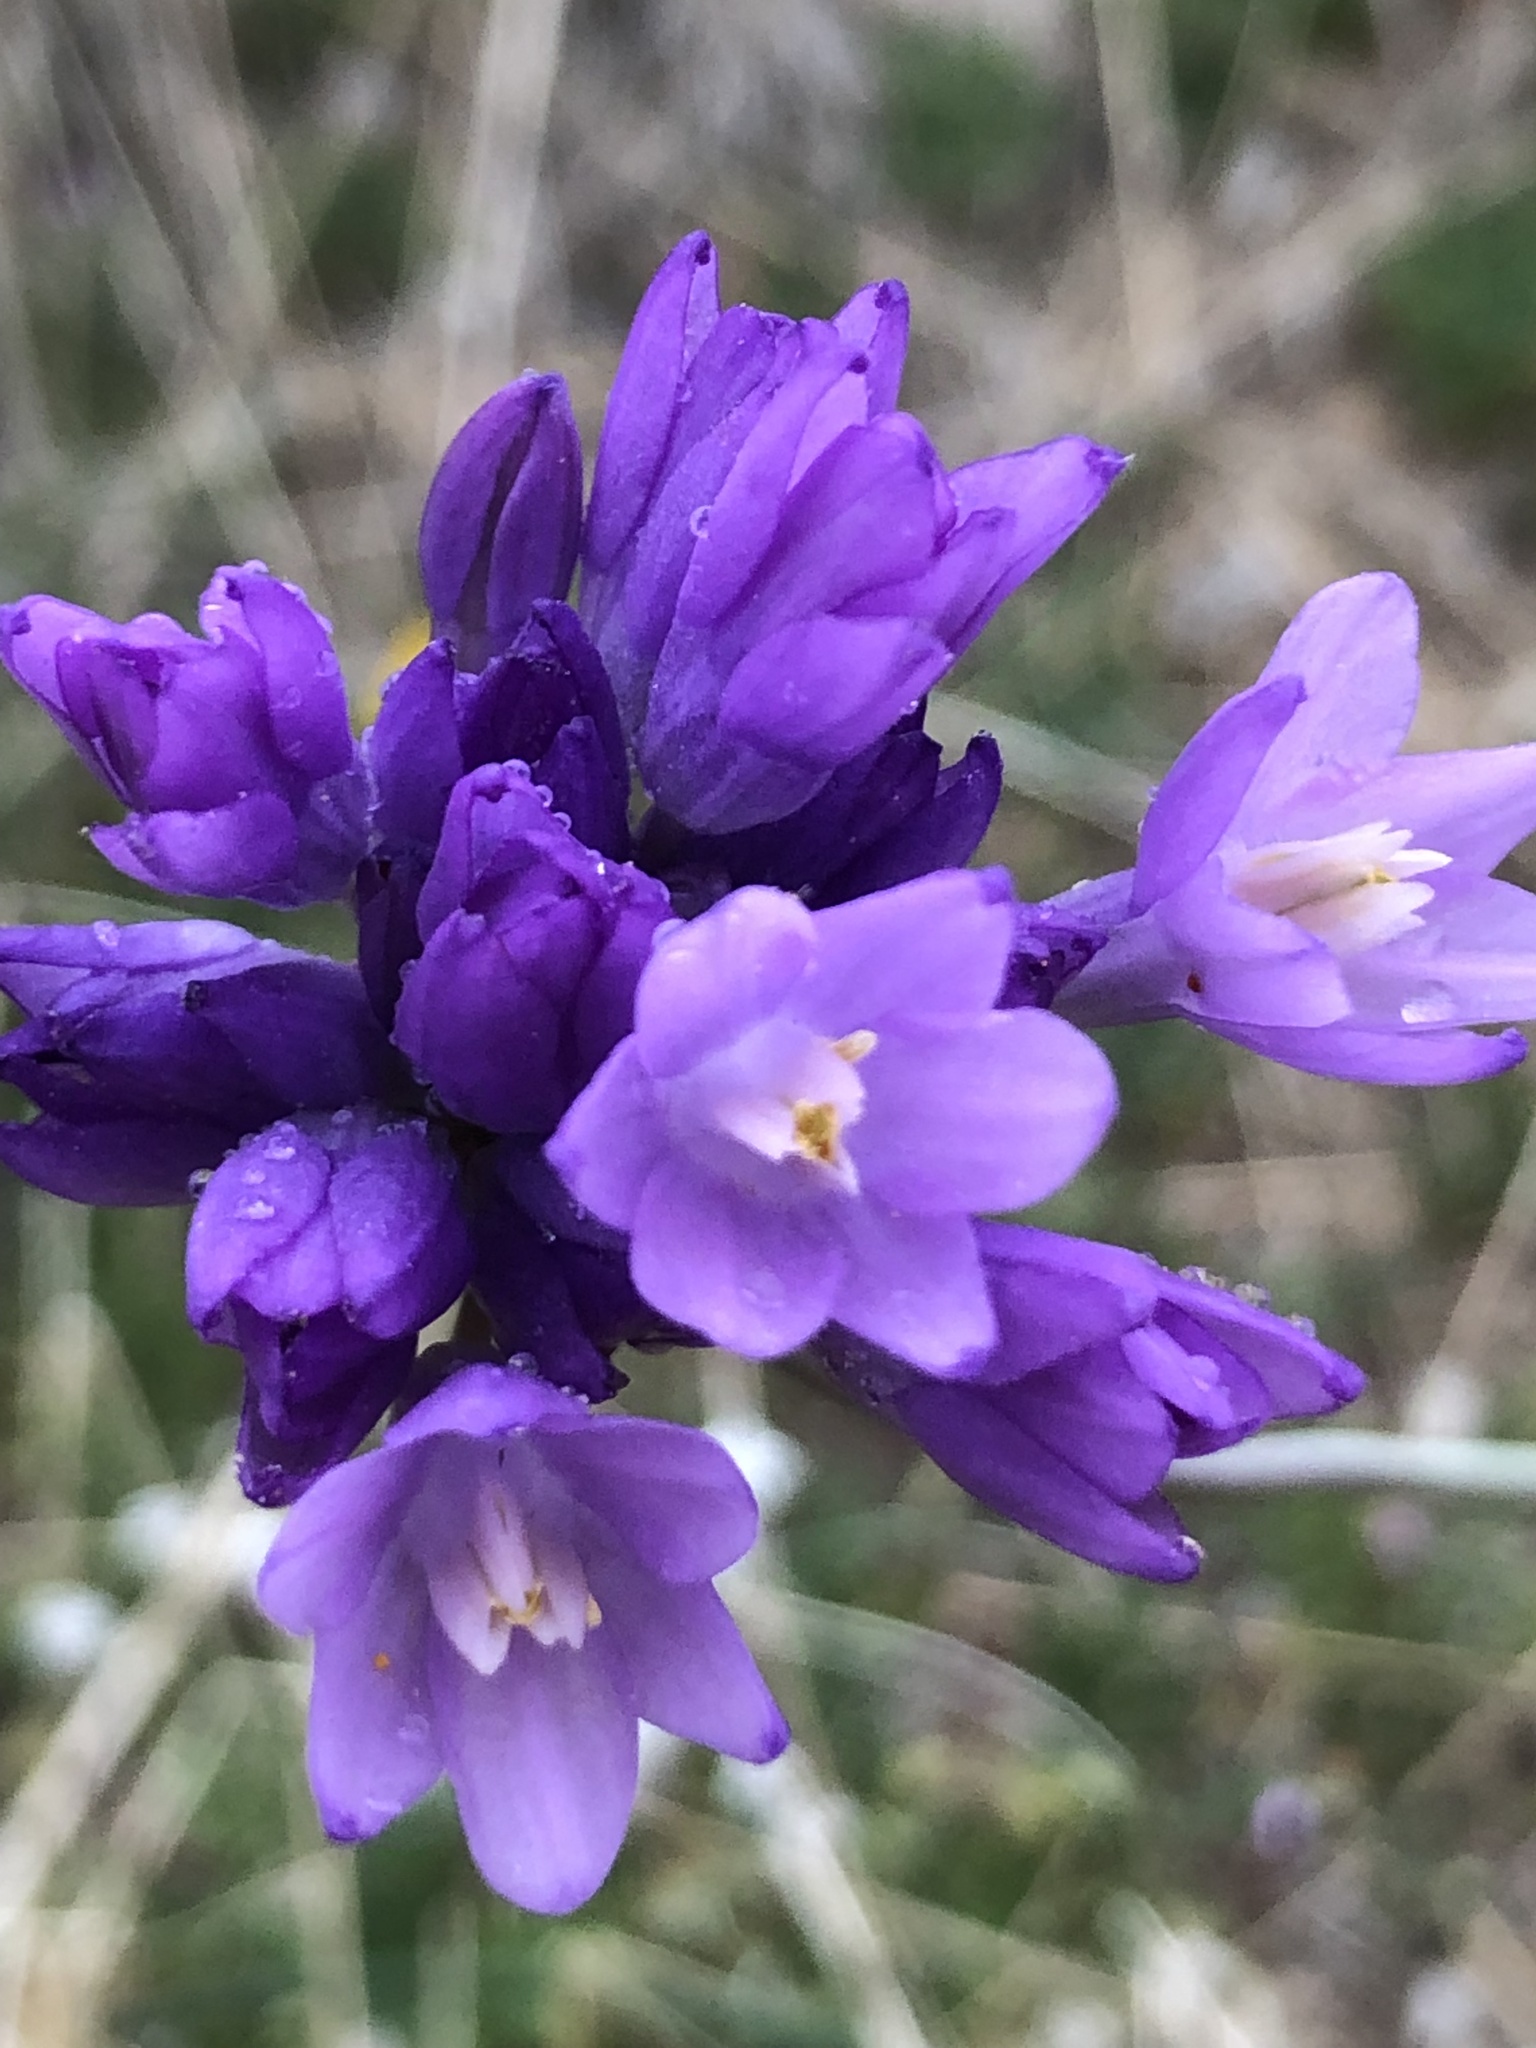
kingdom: Plantae
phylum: Tracheophyta
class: Liliopsida
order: Asparagales
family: Asparagaceae
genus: Dipterostemon
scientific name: Dipterostemon capitatus
